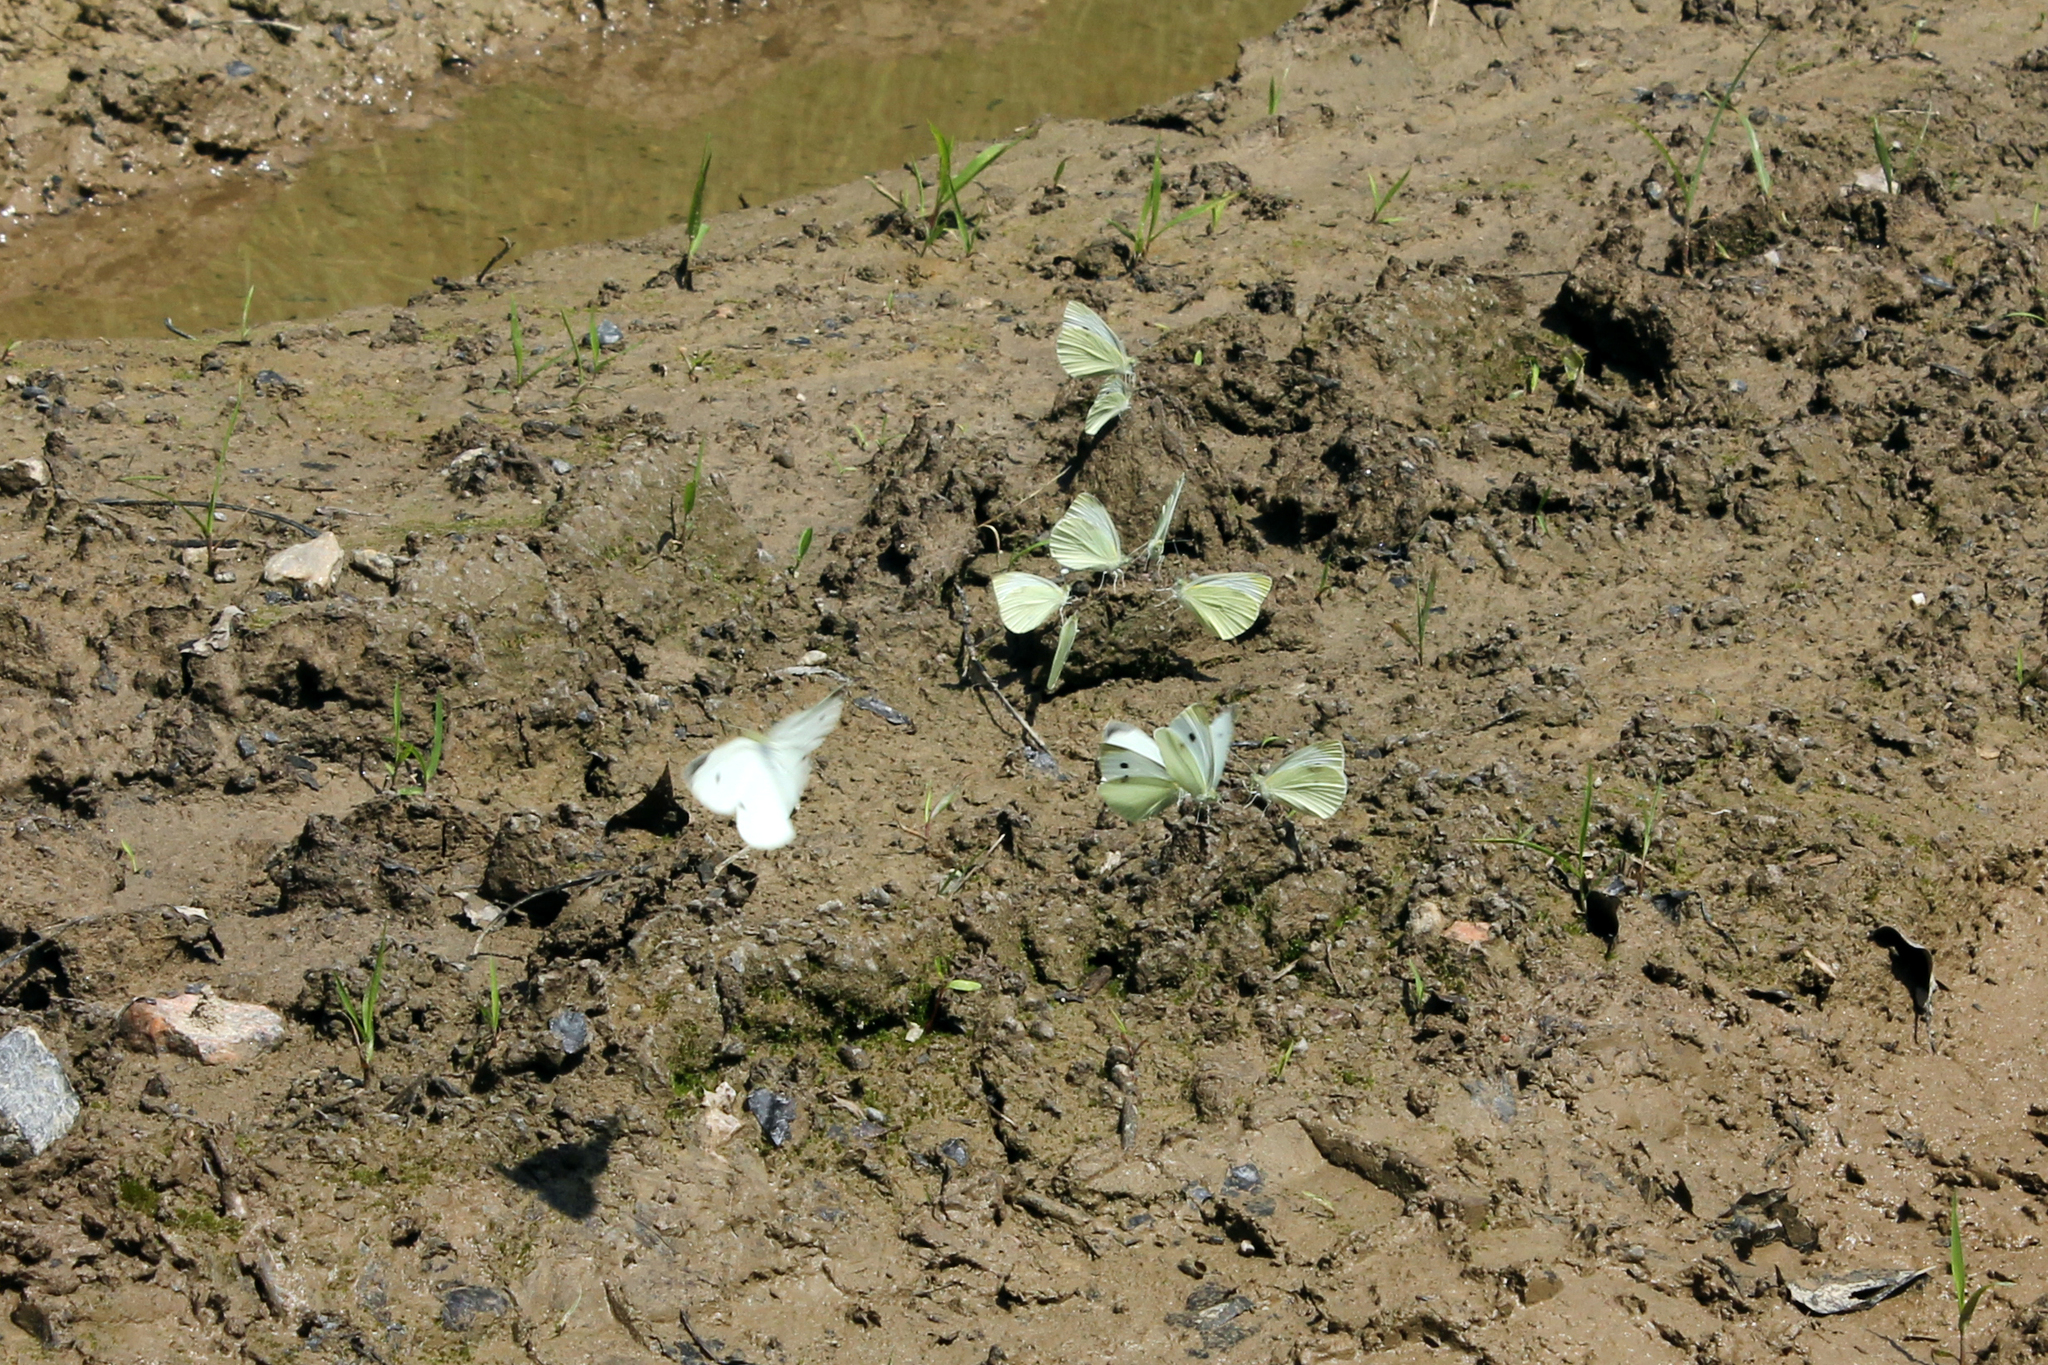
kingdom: Animalia
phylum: Arthropoda
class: Insecta
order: Lepidoptera
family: Pieridae
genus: Pieris
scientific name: Pieris rapae
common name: Small white
